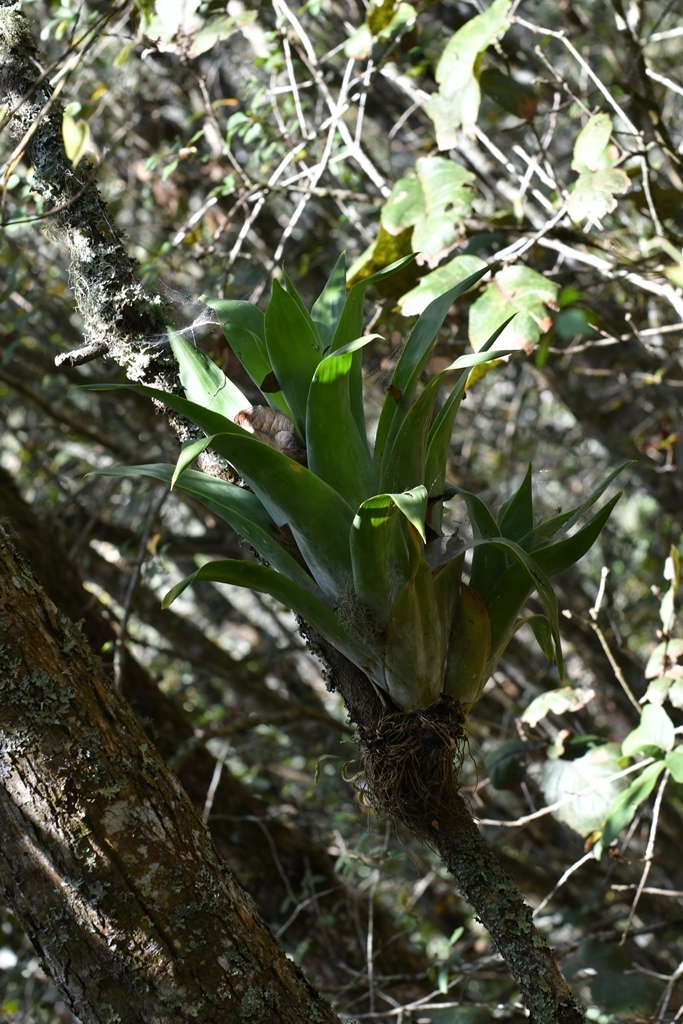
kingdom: Plantae
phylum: Tracheophyta
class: Liliopsida
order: Poales
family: Bromeliaceae
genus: Catopsis
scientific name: Catopsis oerstediana
